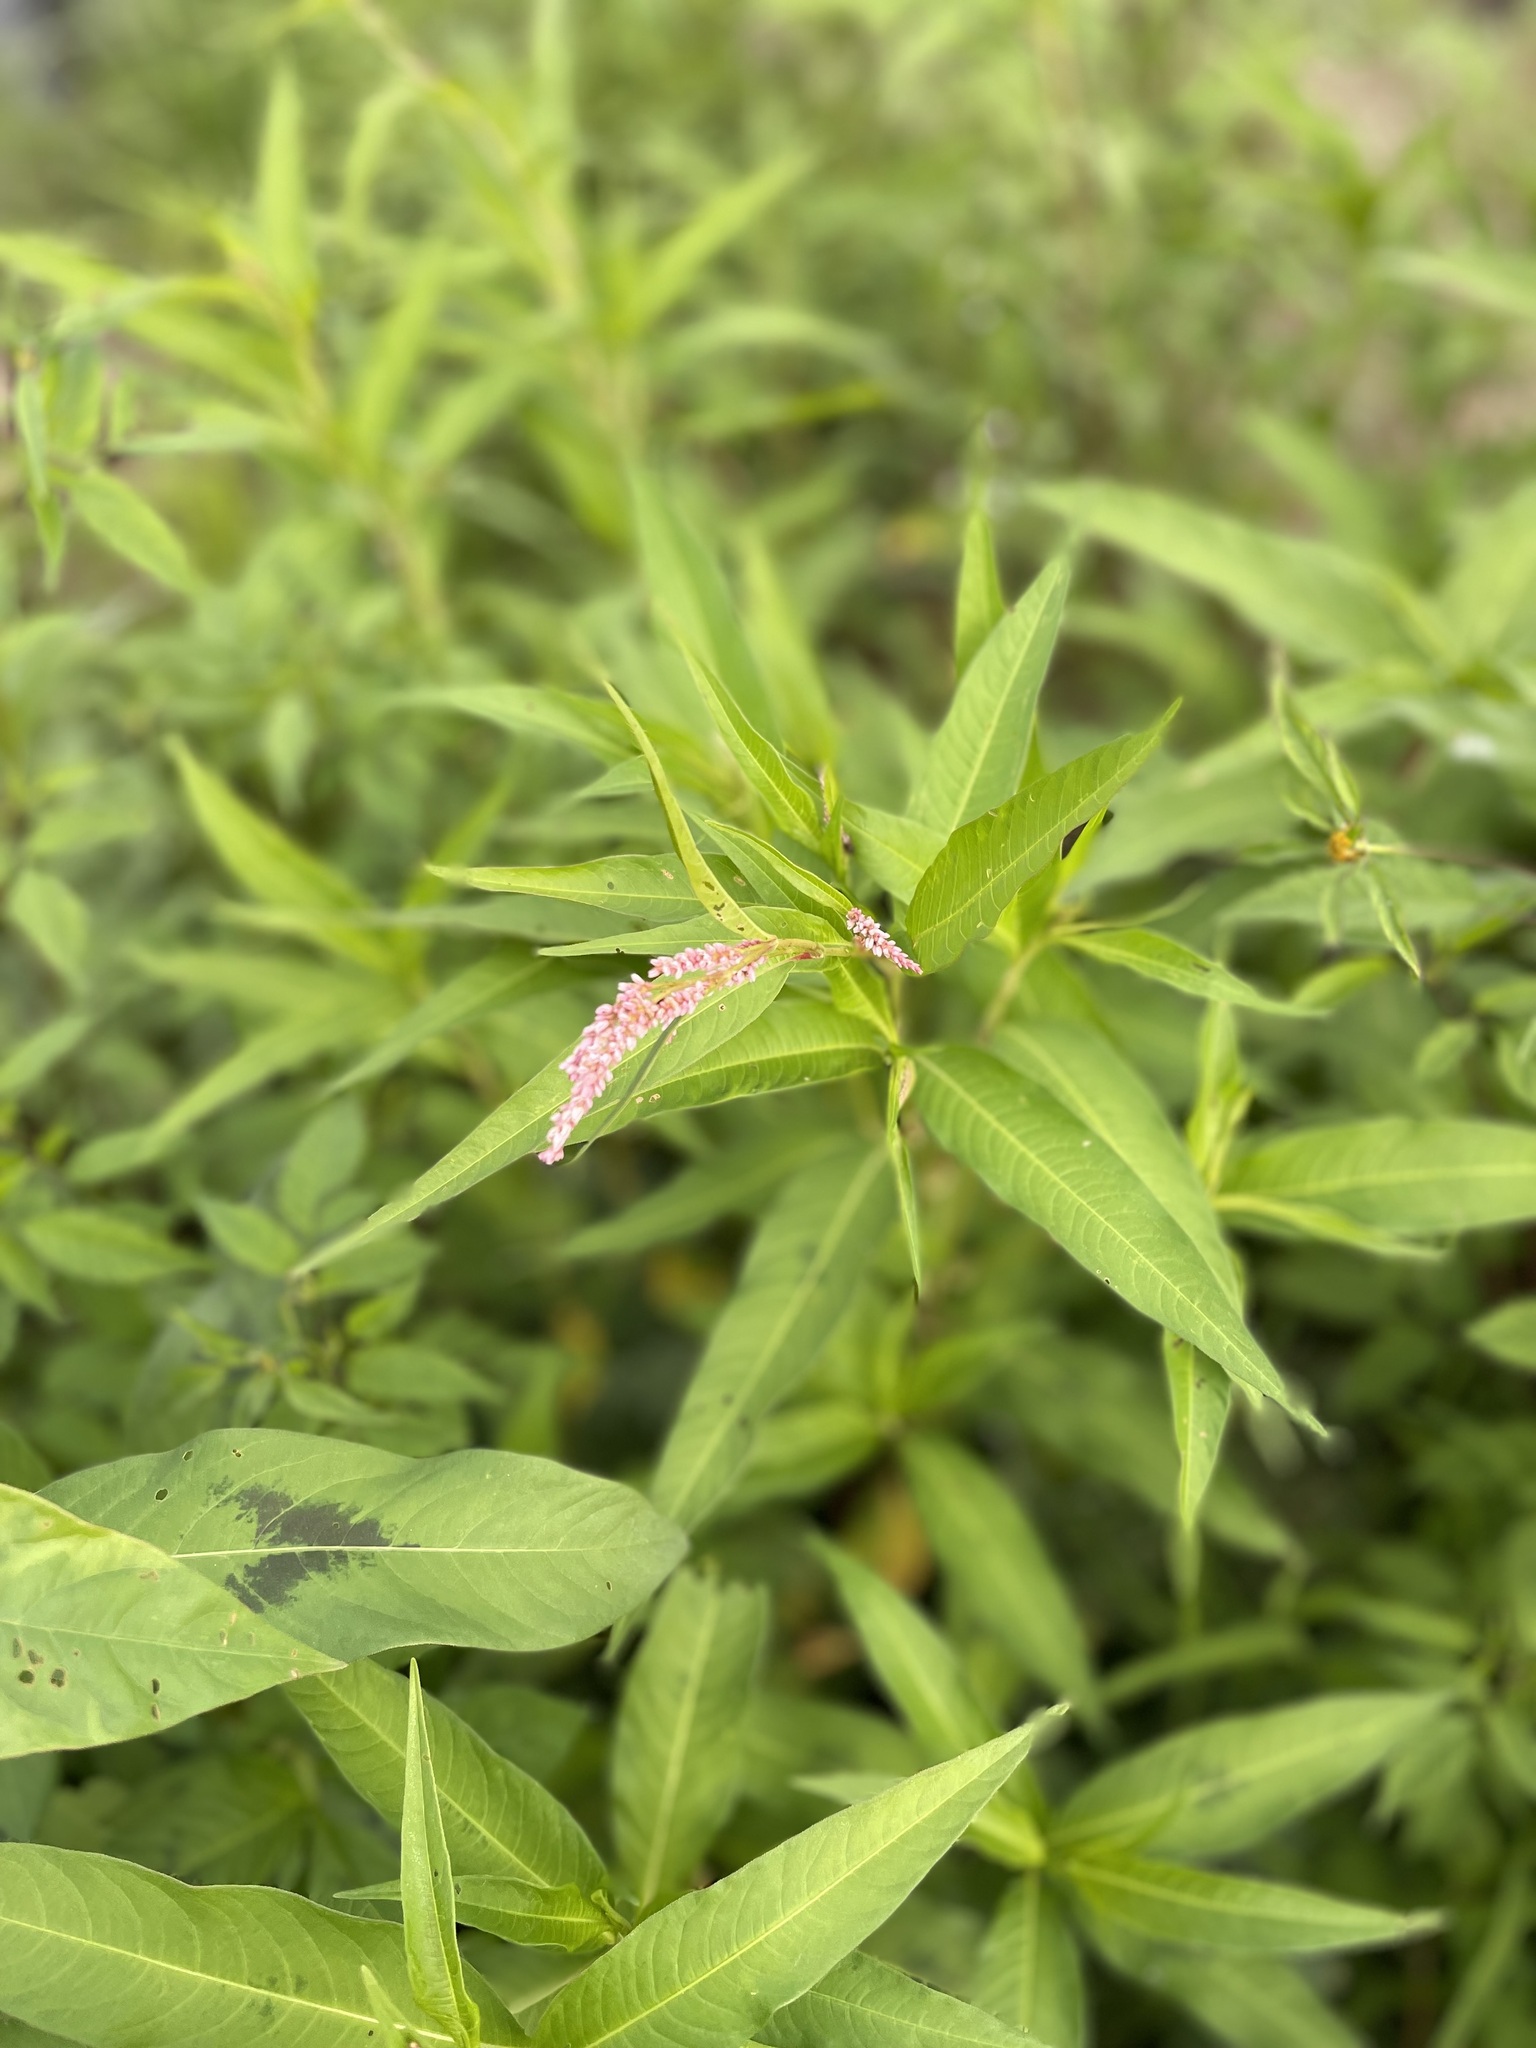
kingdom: Plantae
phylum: Tracheophyta
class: Magnoliopsida
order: Caryophyllales
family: Polygonaceae
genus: Persicaria
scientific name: Persicaria lapathifolia
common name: Curlytop knotweed
